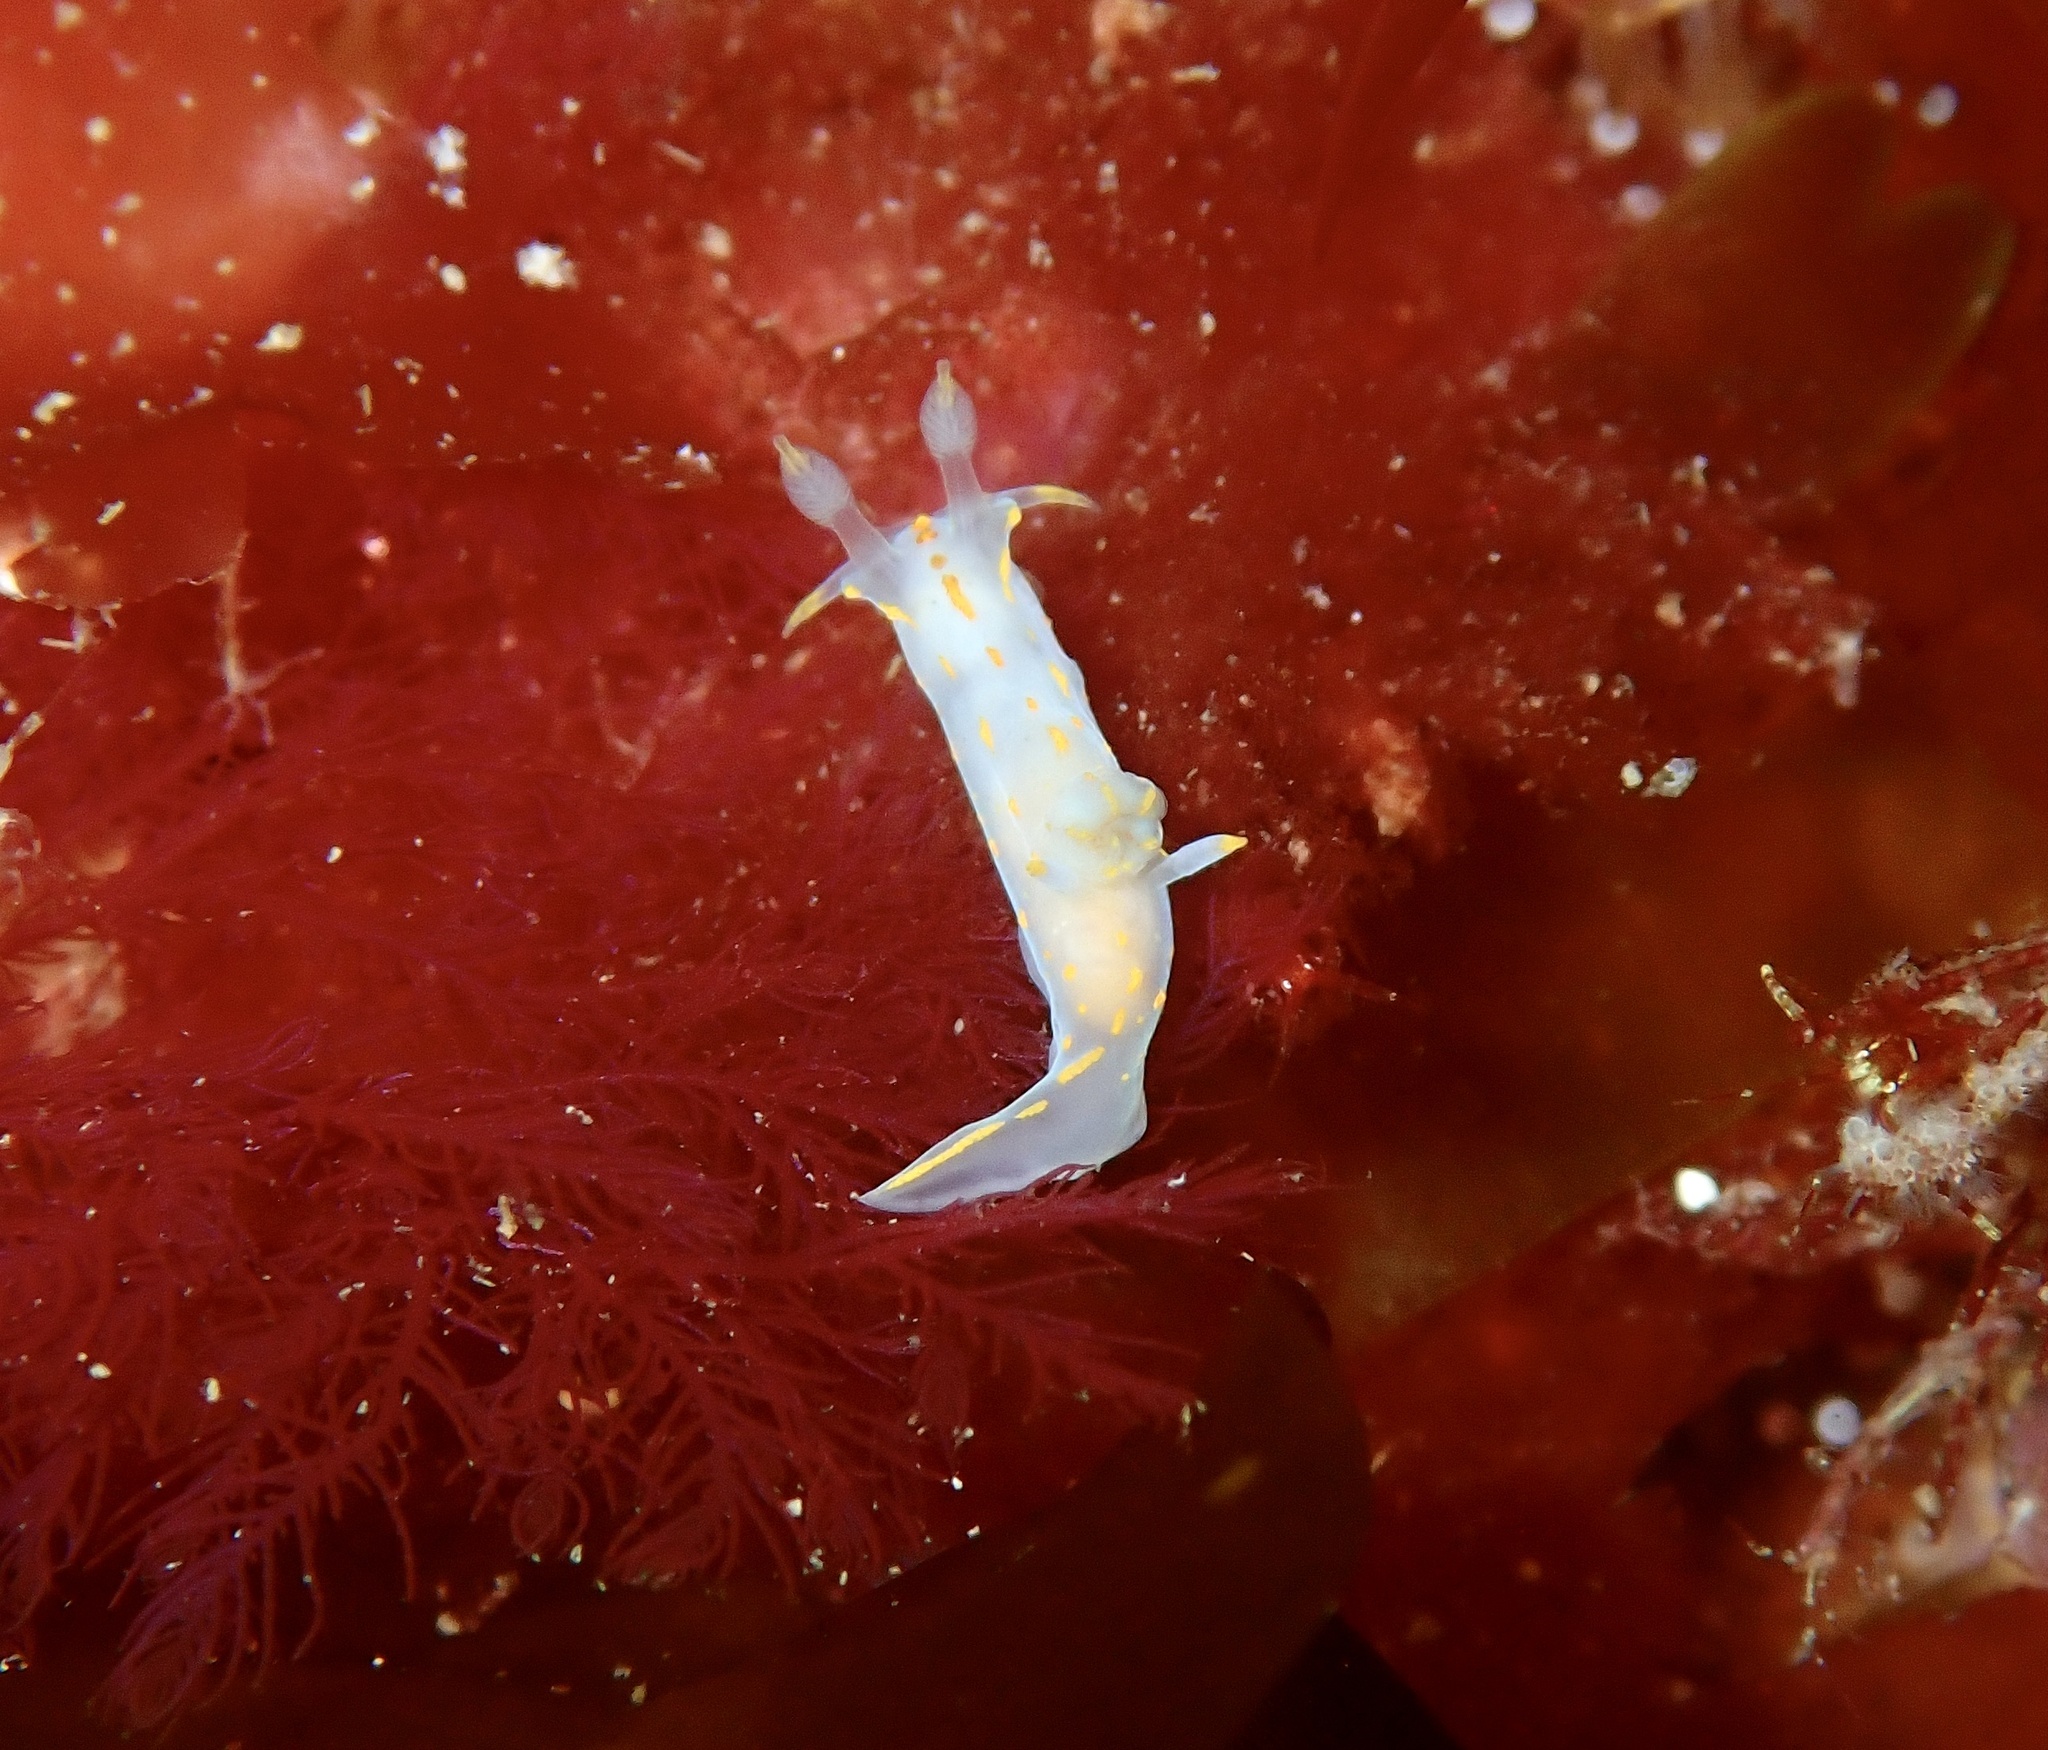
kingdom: Animalia
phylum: Mollusca
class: Gastropoda
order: Nudibranchia
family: Polyceridae
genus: Polycera
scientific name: Polycera norvegica
